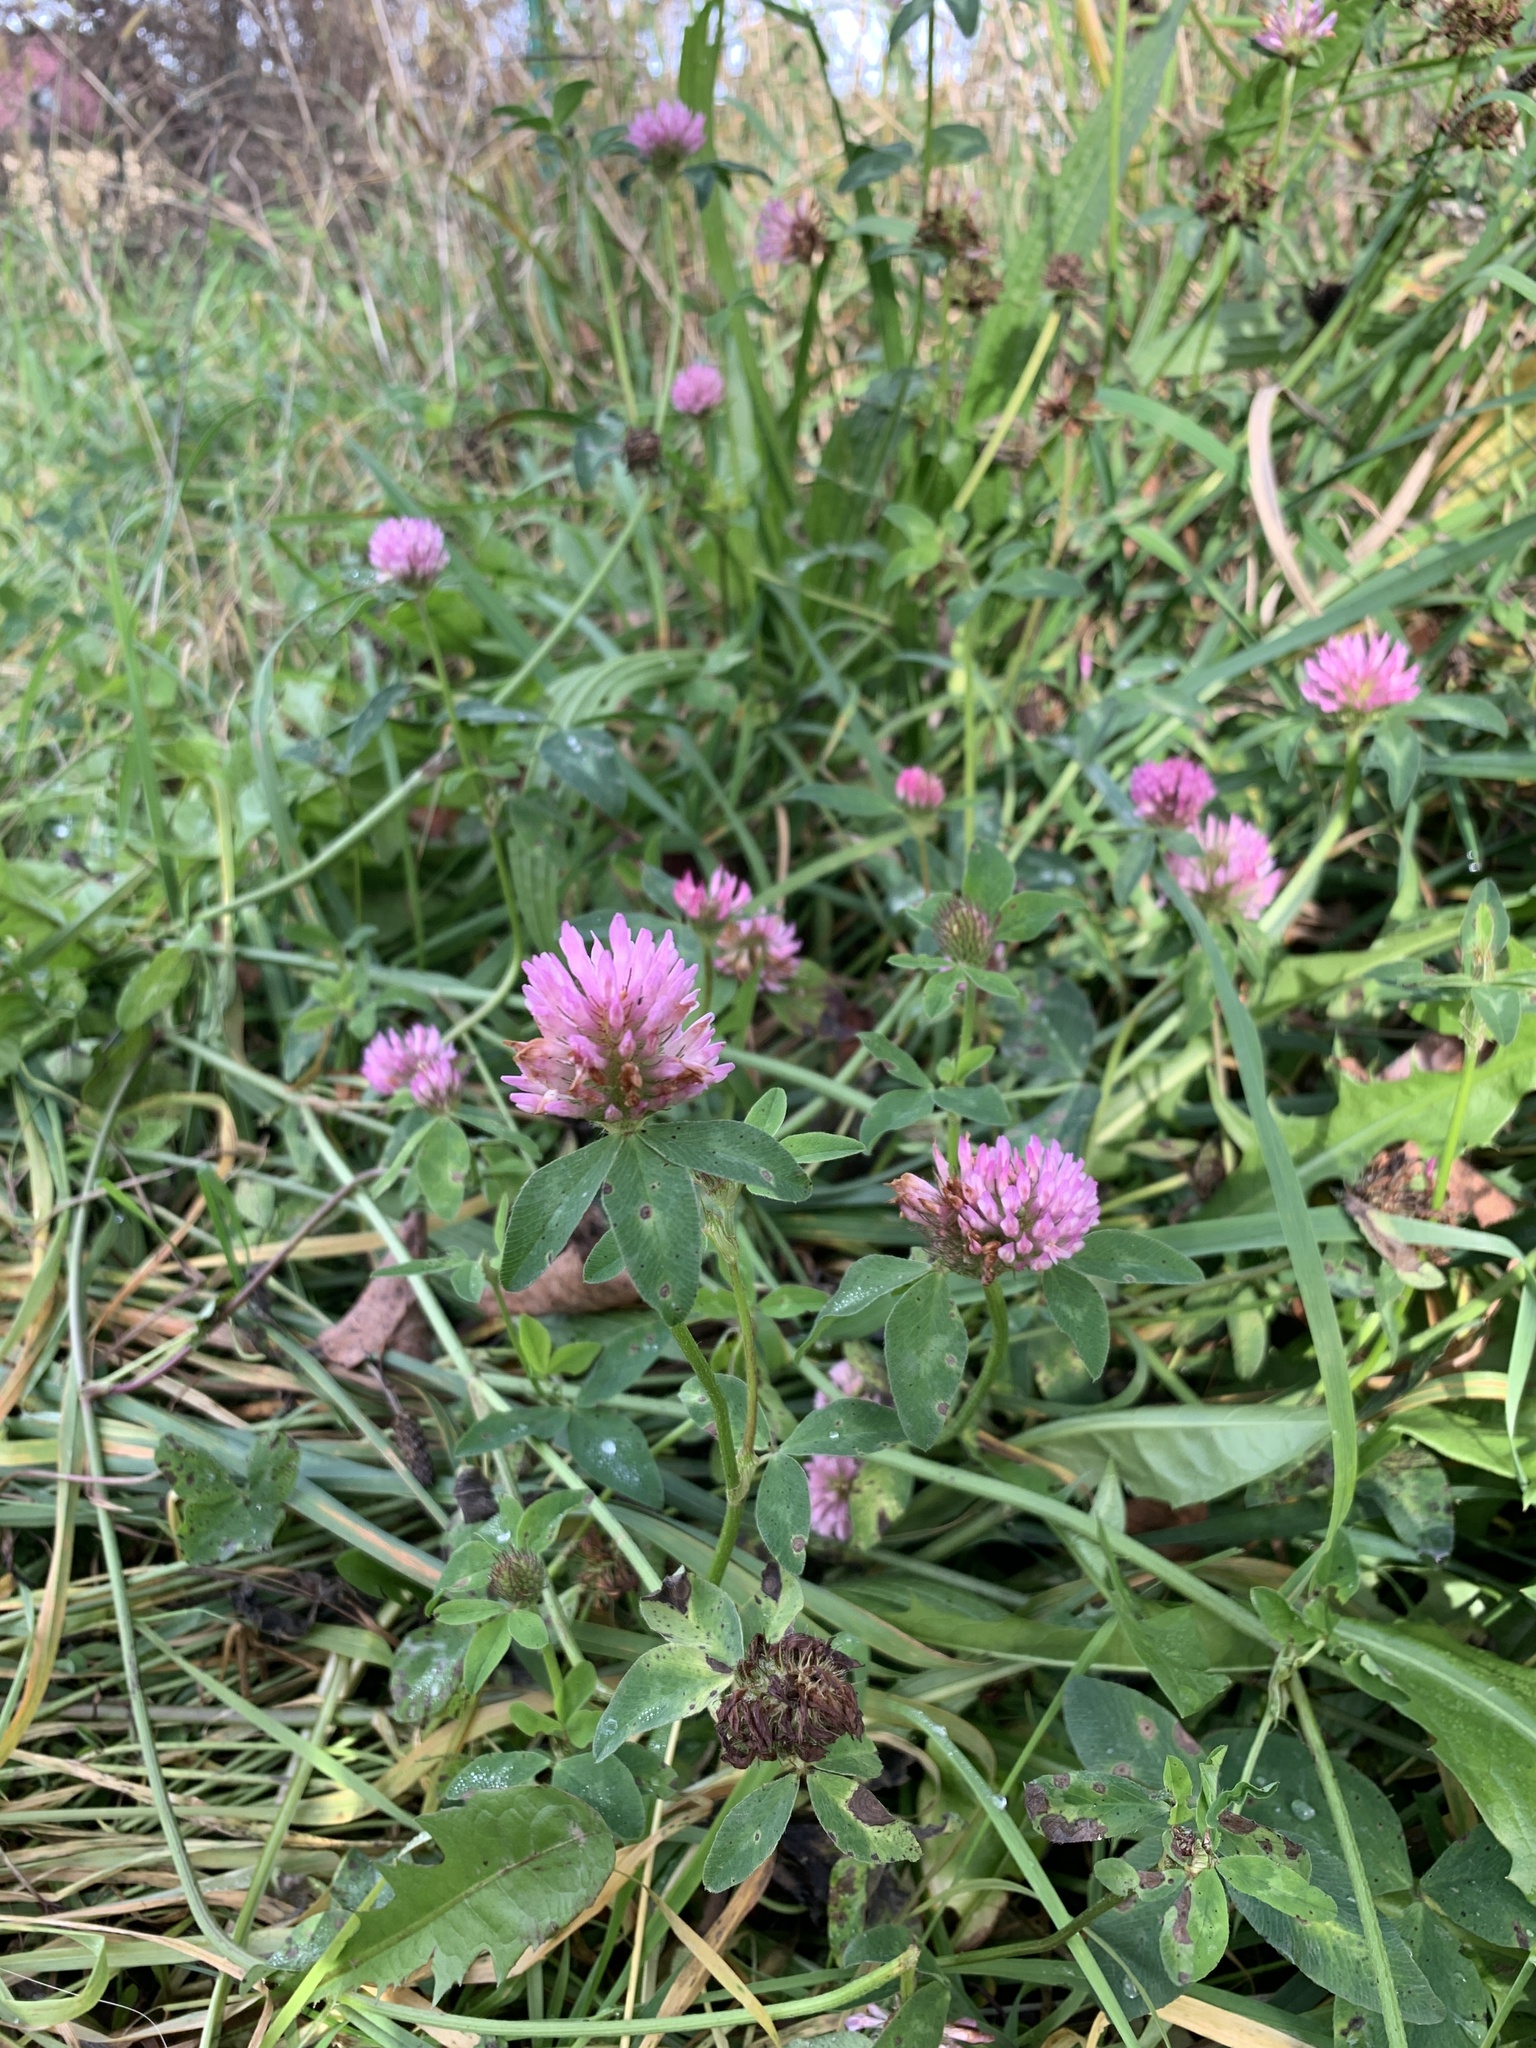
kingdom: Plantae
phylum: Tracheophyta
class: Magnoliopsida
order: Fabales
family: Fabaceae
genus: Trifolium
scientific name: Trifolium pratense
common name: Red clover
